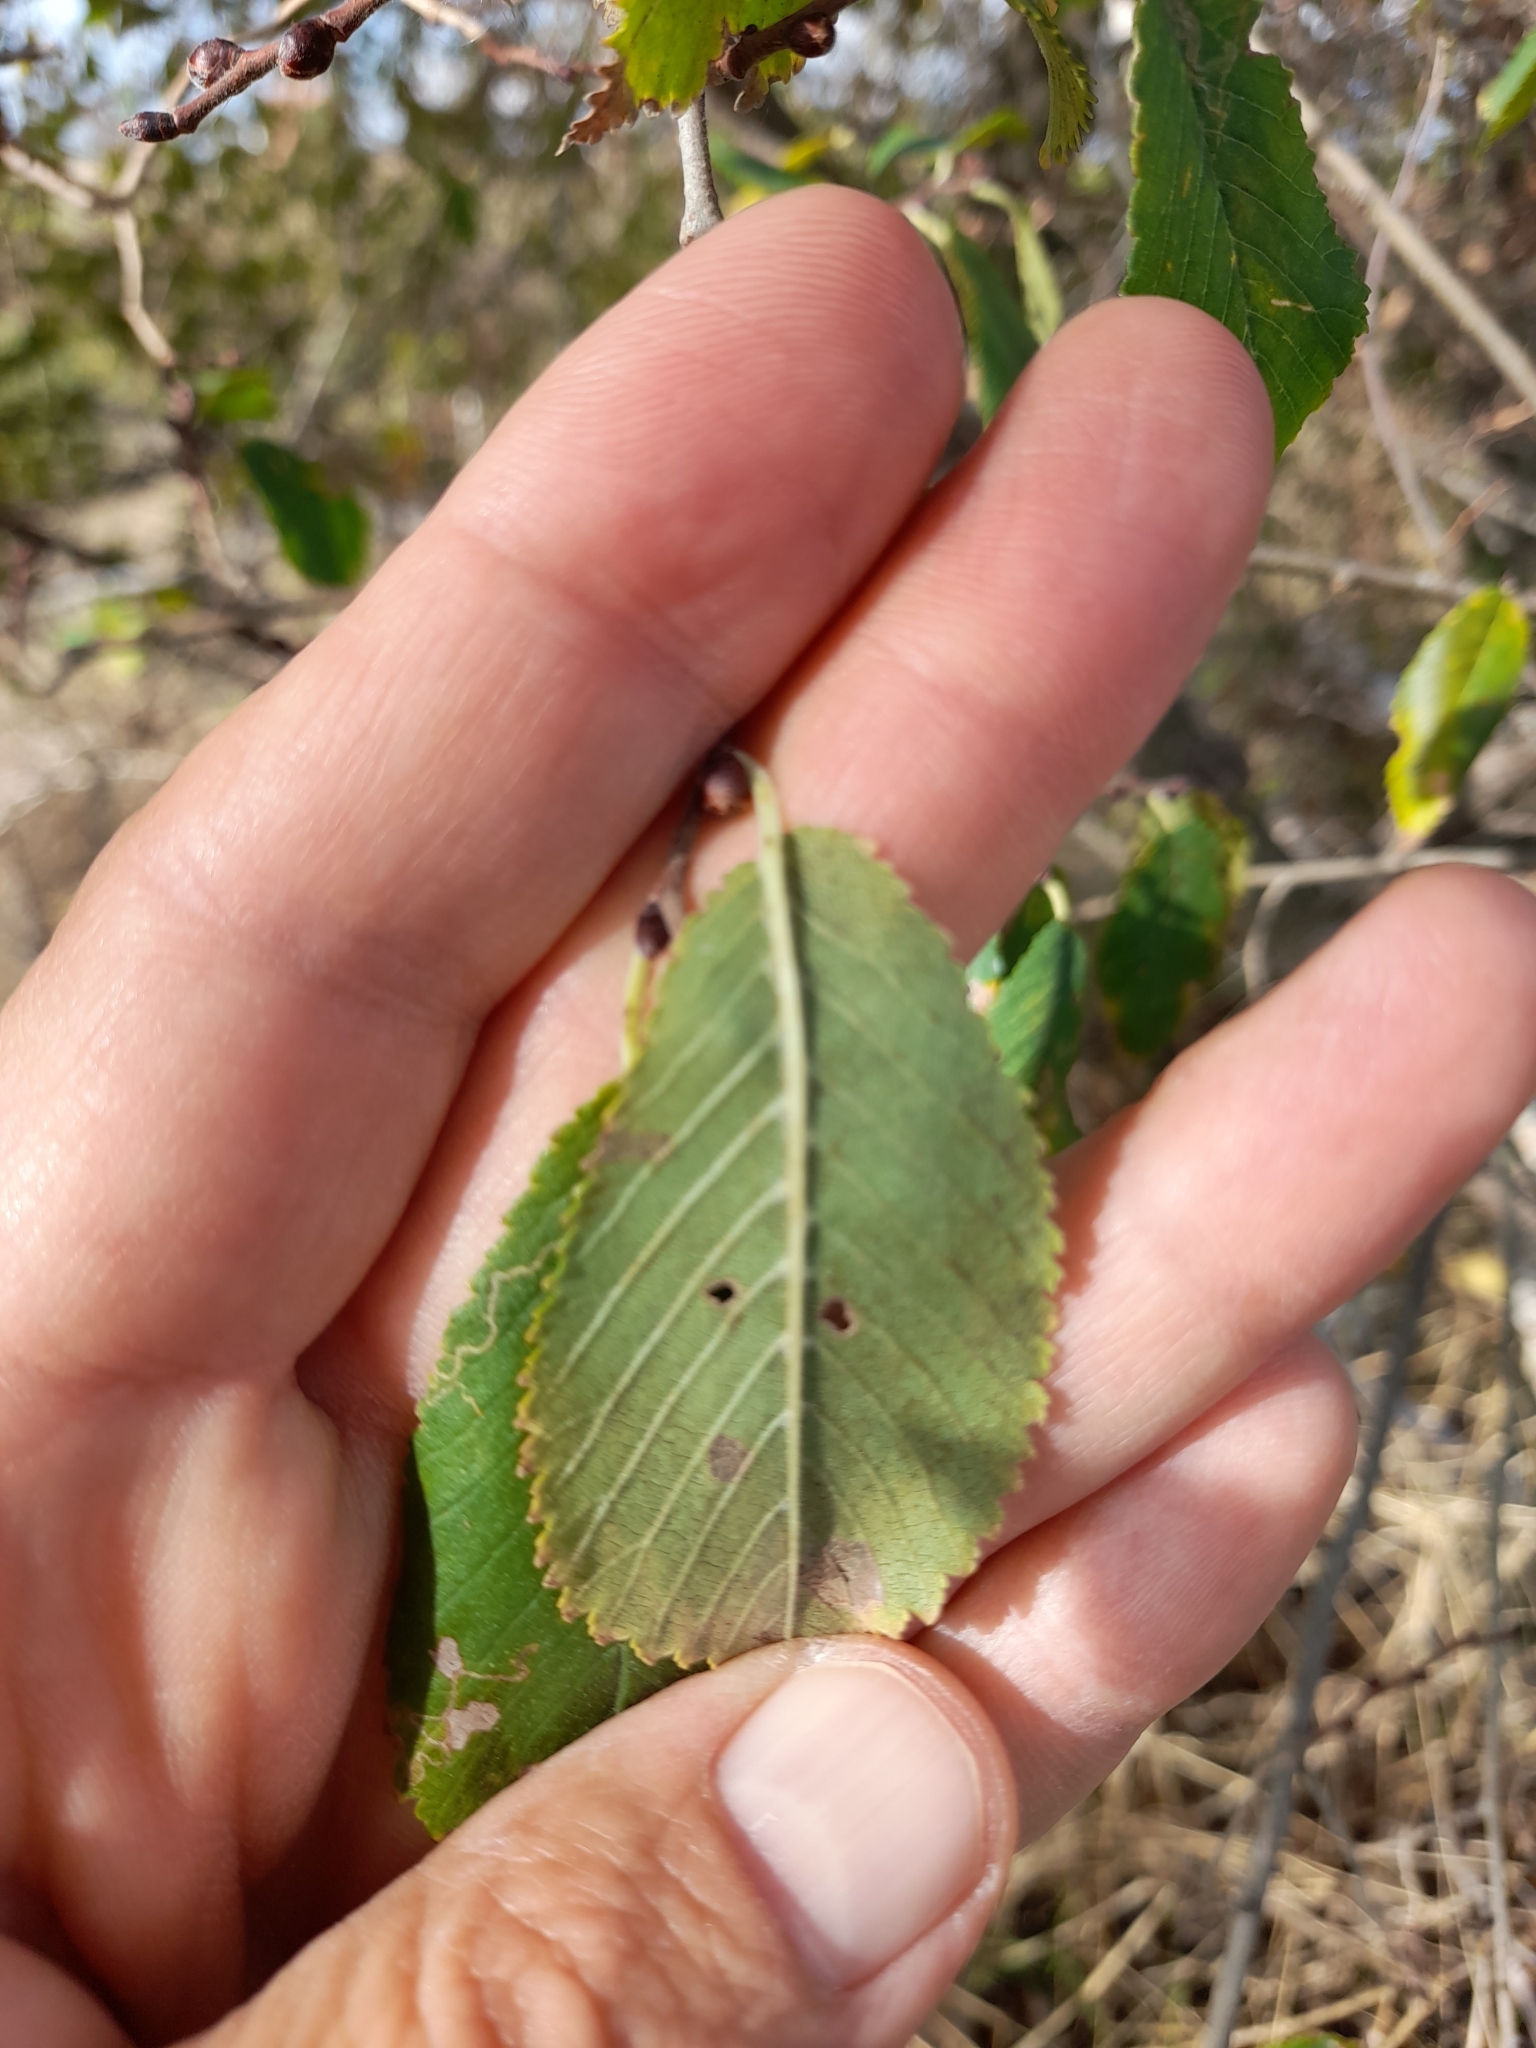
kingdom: Plantae
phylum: Tracheophyta
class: Magnoliopsida
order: Rosales
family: Ulmaceae
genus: Ulmus
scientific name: Ulmus minor
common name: Small-leaved elm
